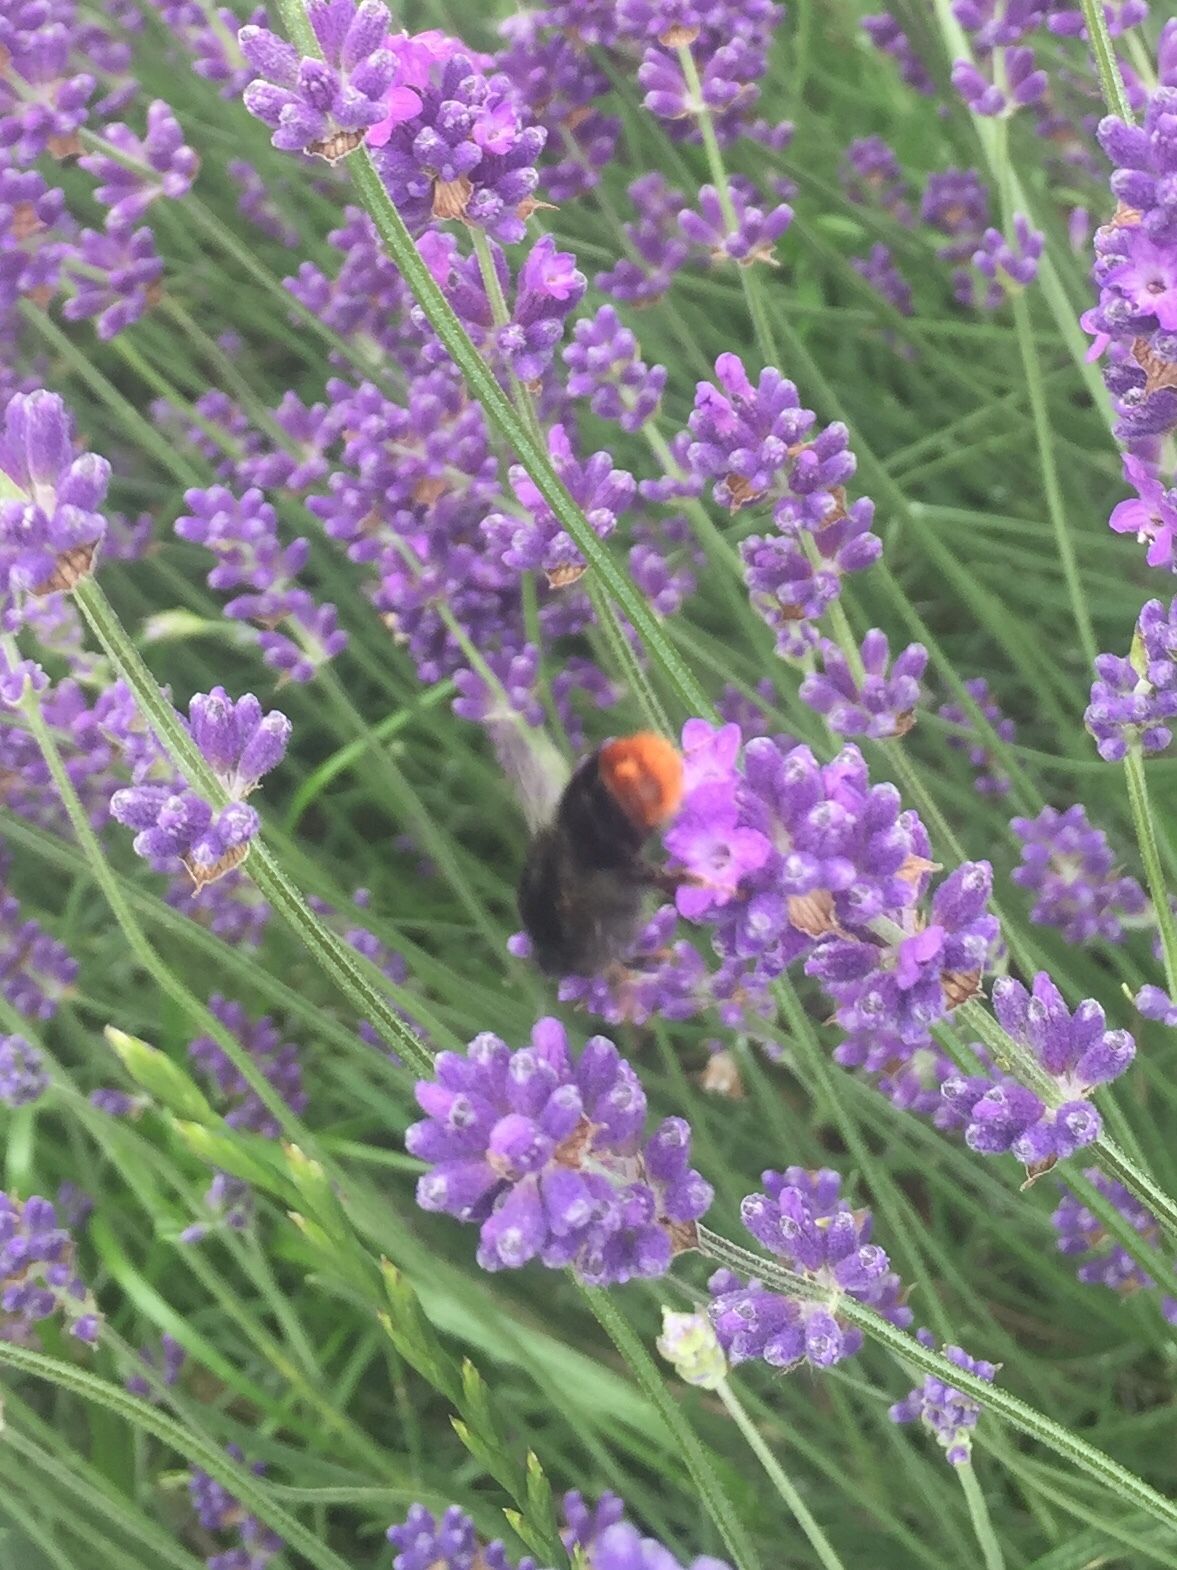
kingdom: Animalia
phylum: Arthropoda
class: Insecta
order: Hymenoptera
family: Apidae
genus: Bombus
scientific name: Bombus lapidarius
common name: Large red-tailed humble-bee
